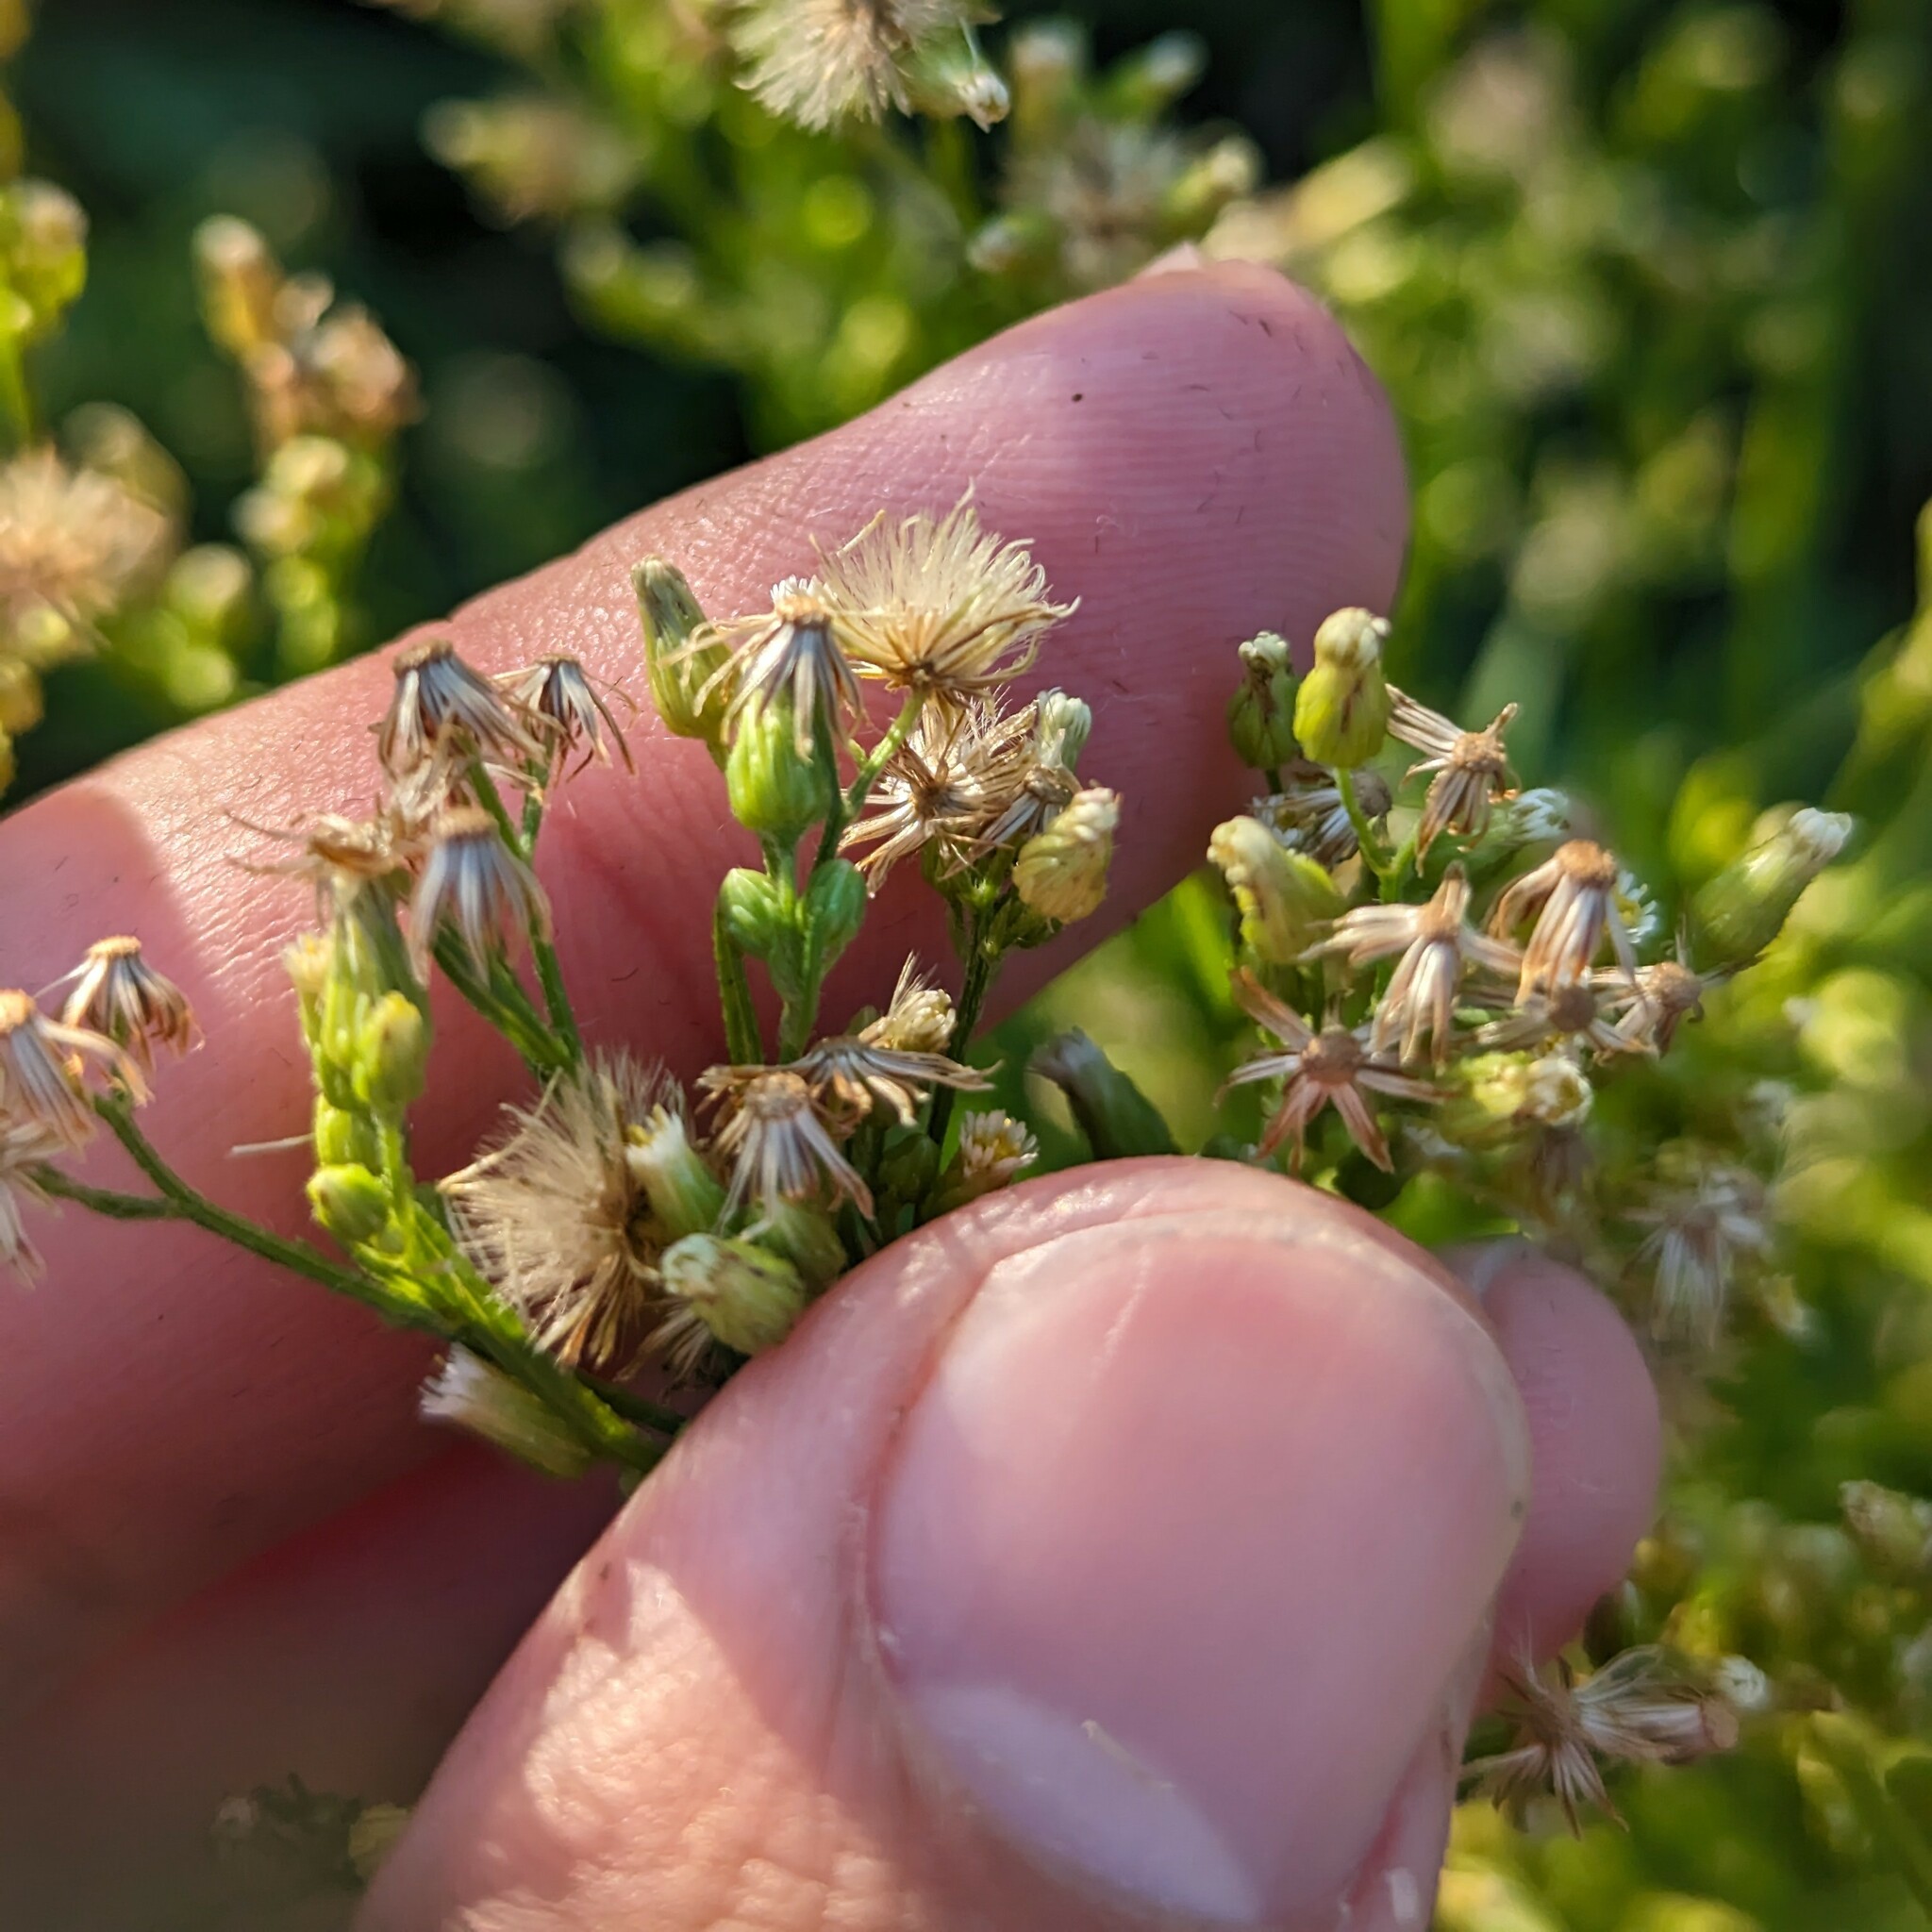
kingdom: Plantae
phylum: Tracheophyta
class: Magnoliopsida
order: Asterales
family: Asteraceae
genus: Erigeron
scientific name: Erigeron canadensis
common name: Canadian fleabane
